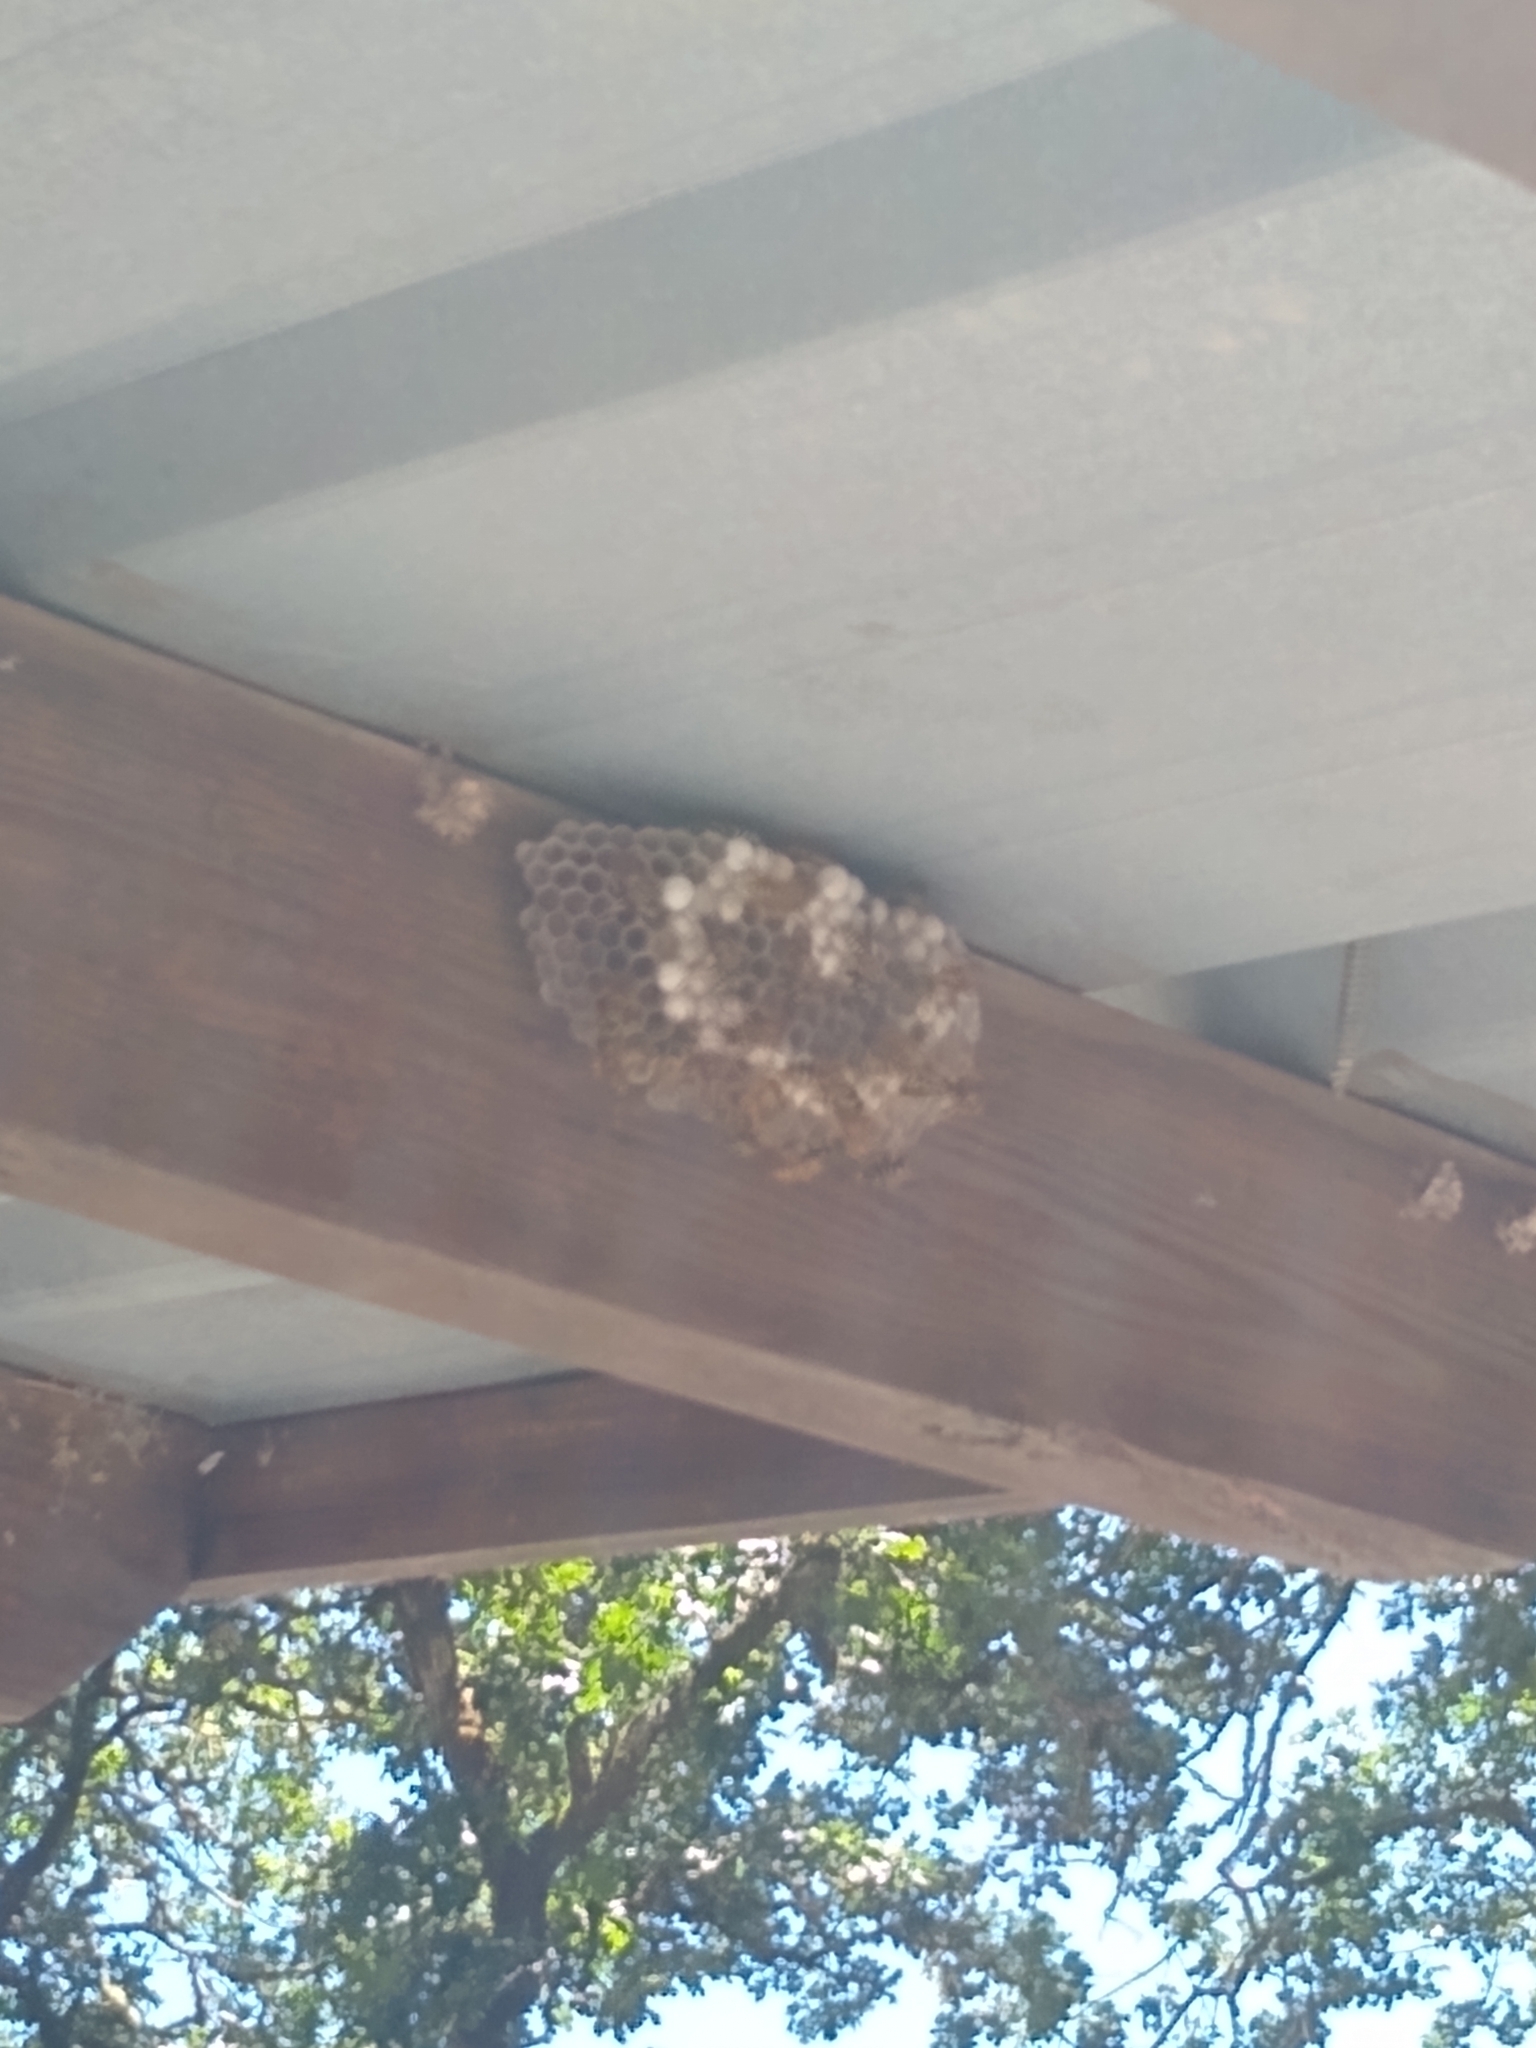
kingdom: Animalia
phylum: Arthropoda
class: Insecta
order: Hymenoptera
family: Vespidae
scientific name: Vespidae
